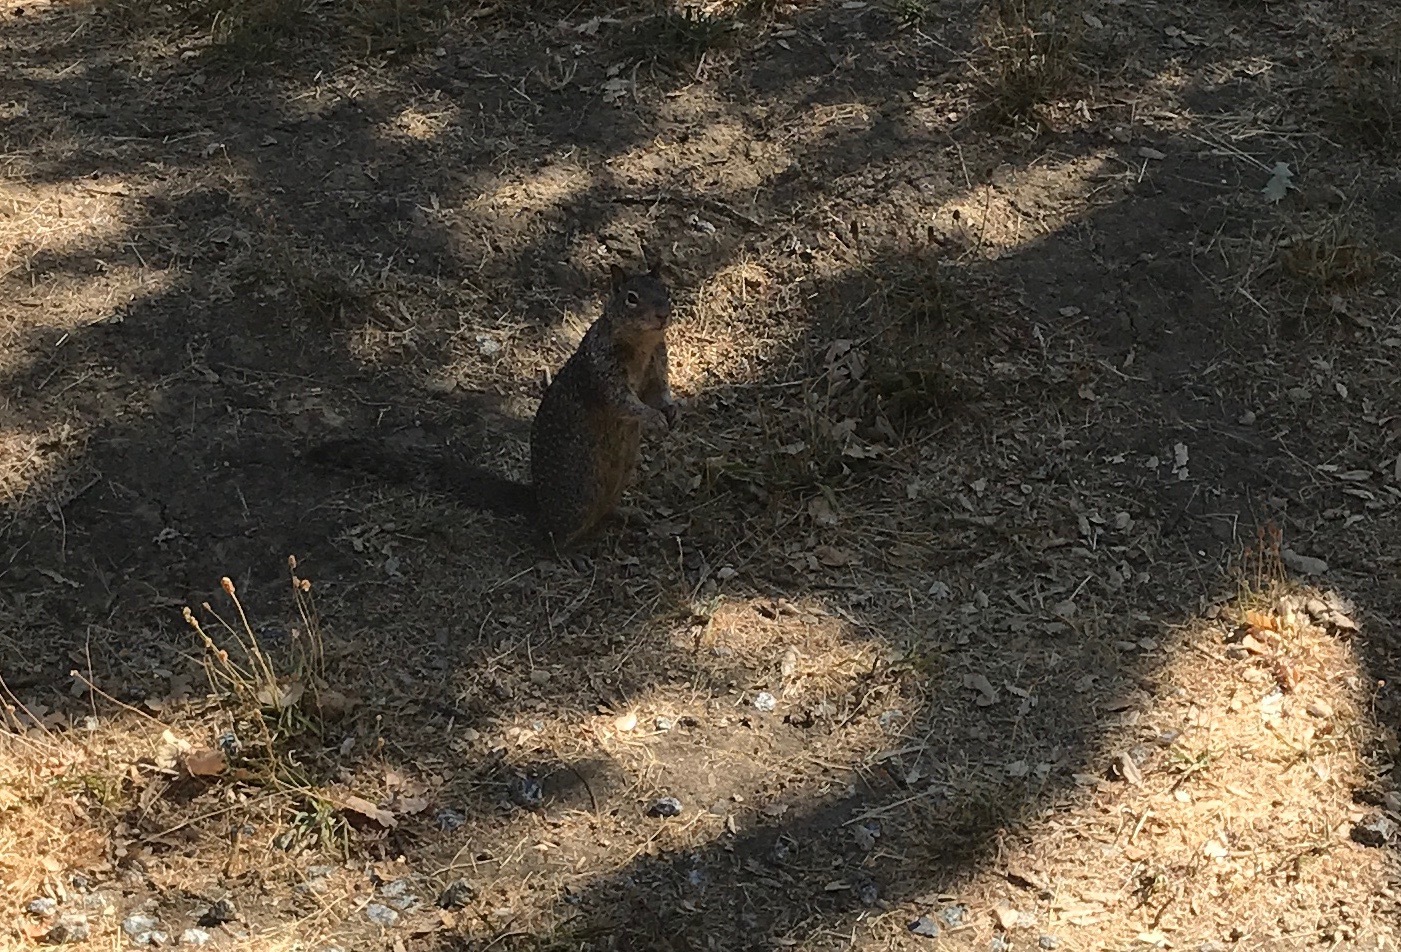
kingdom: Animalia
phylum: Chordata
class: Mammalia
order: Rodentia
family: Sciuridae
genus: Otospermophilus
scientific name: Otospermophilus beecheyi
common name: California ground squirrel
